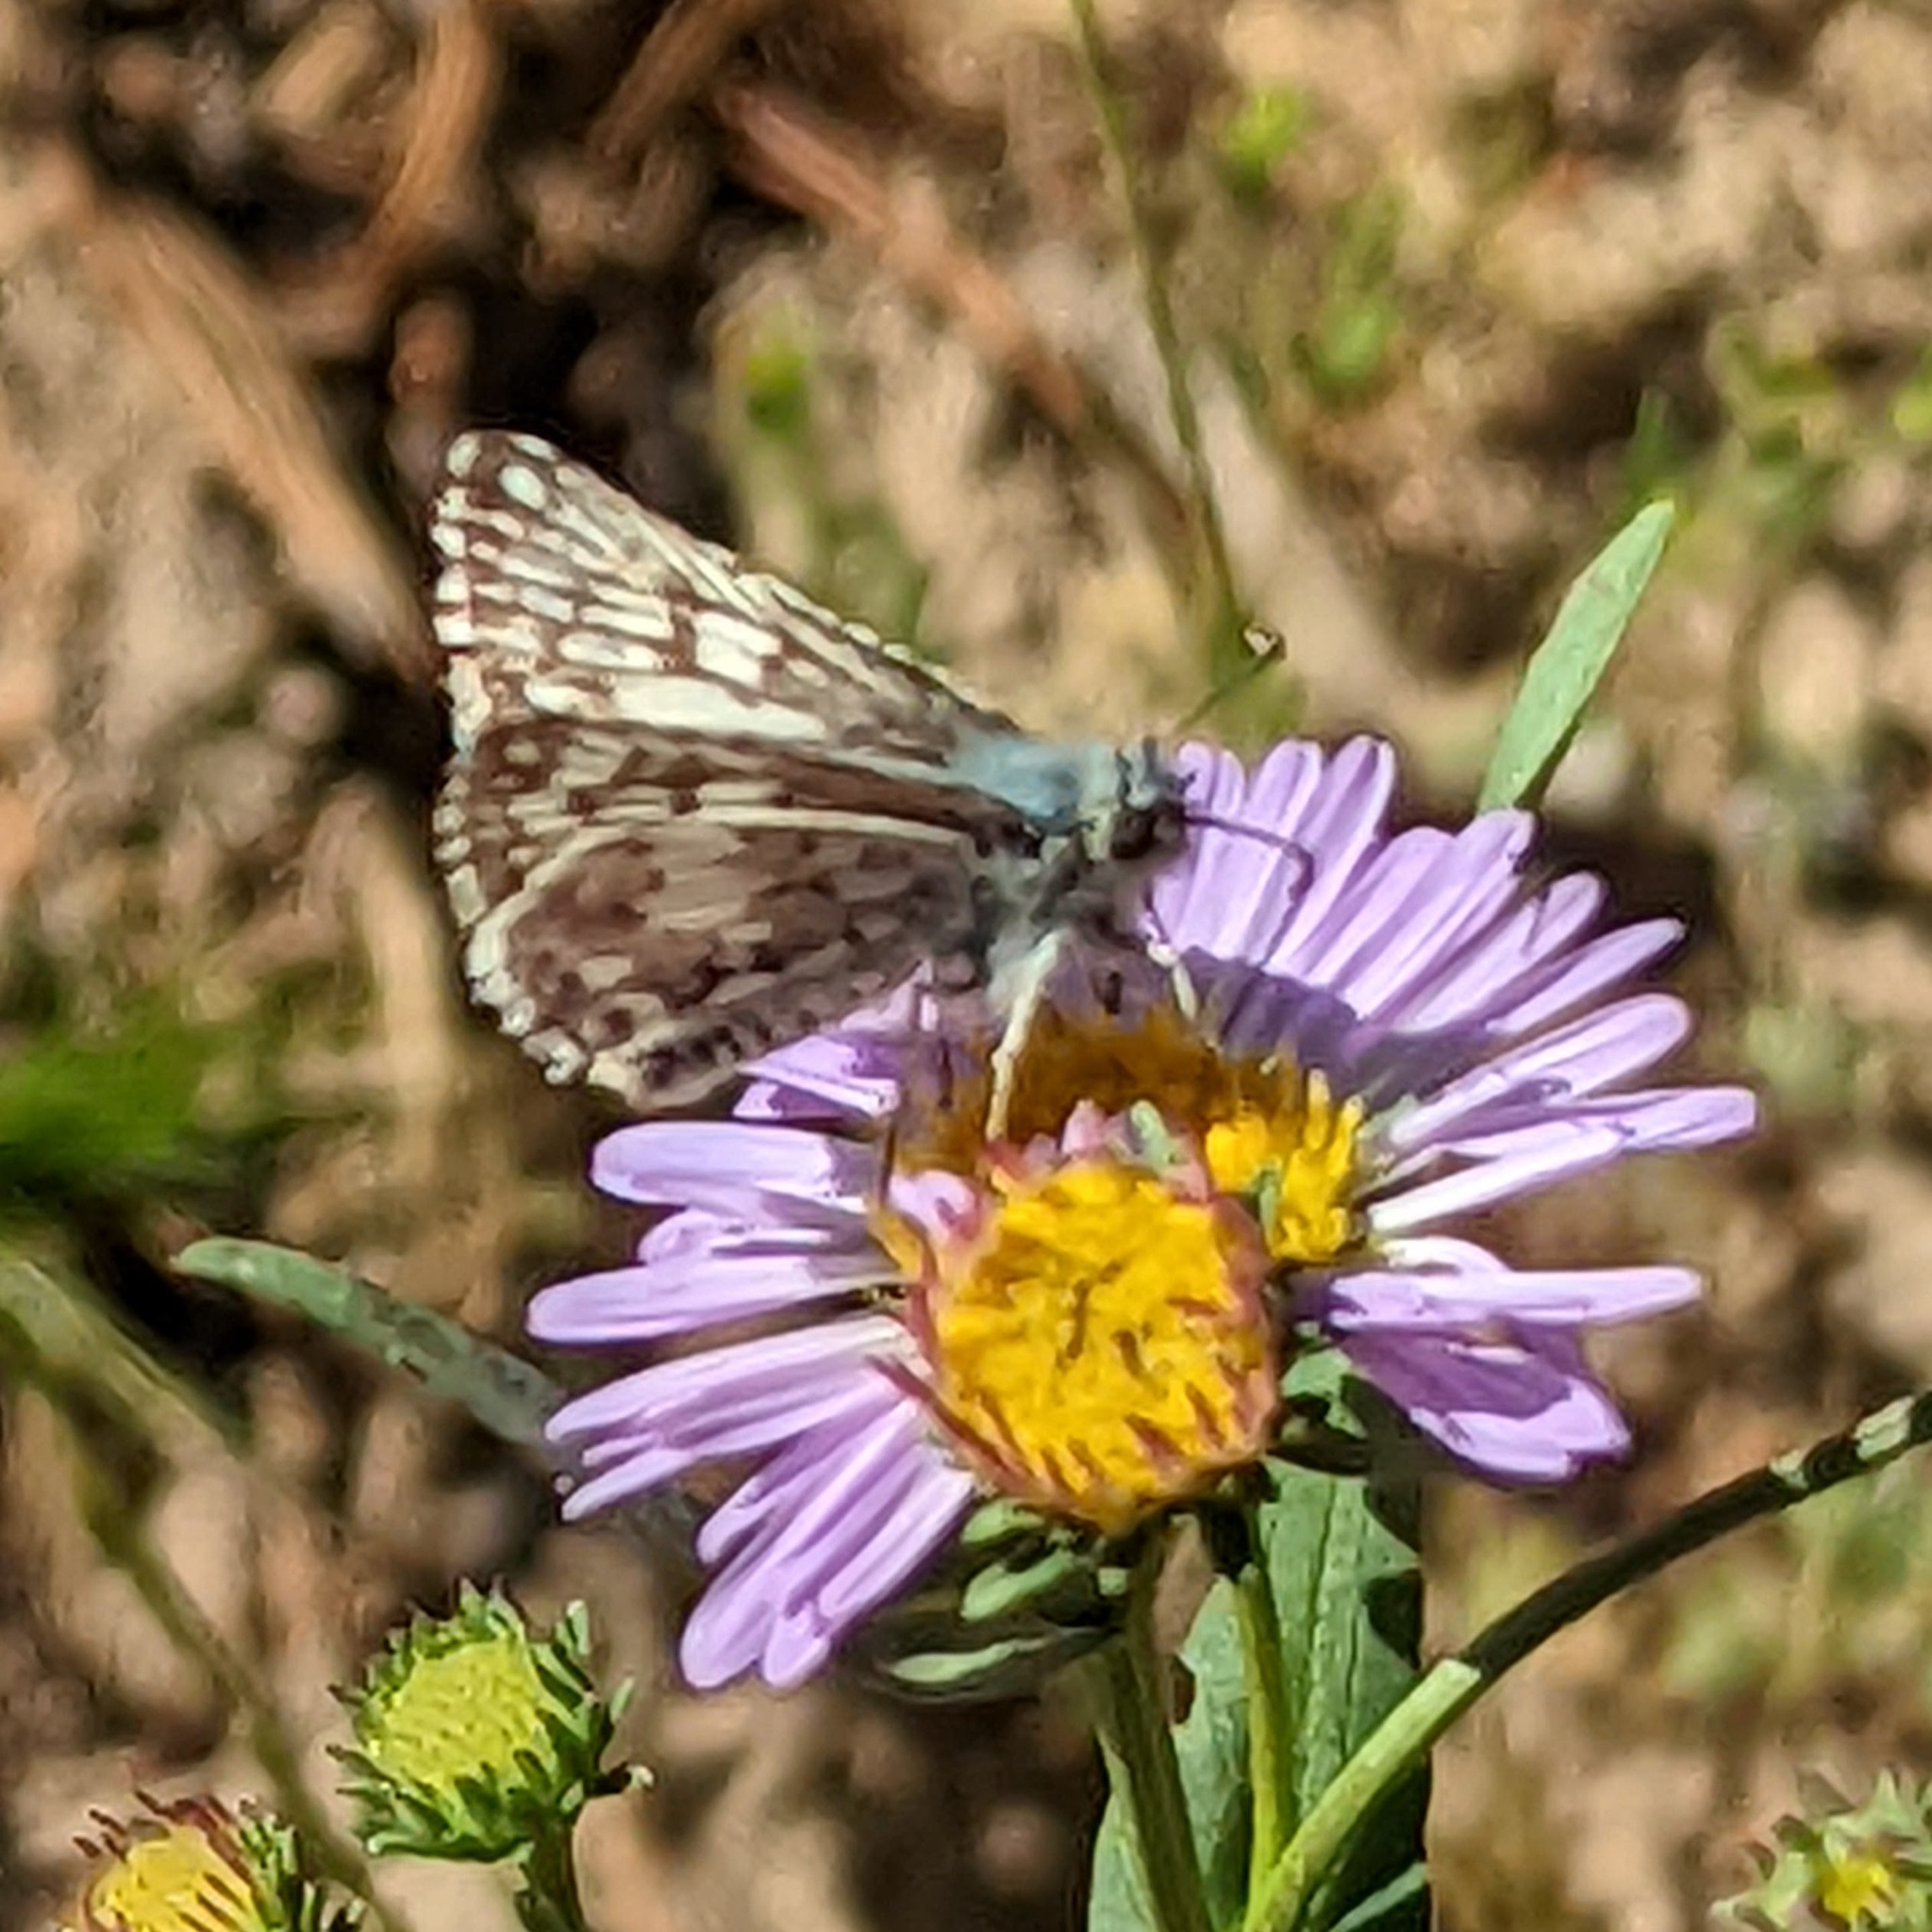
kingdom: Animalia
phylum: Arthropoda
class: Insecta
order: Lepidoptera
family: Hesperiidae
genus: Burnsius
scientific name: Burnsius communis
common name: Common checkered-skipper
